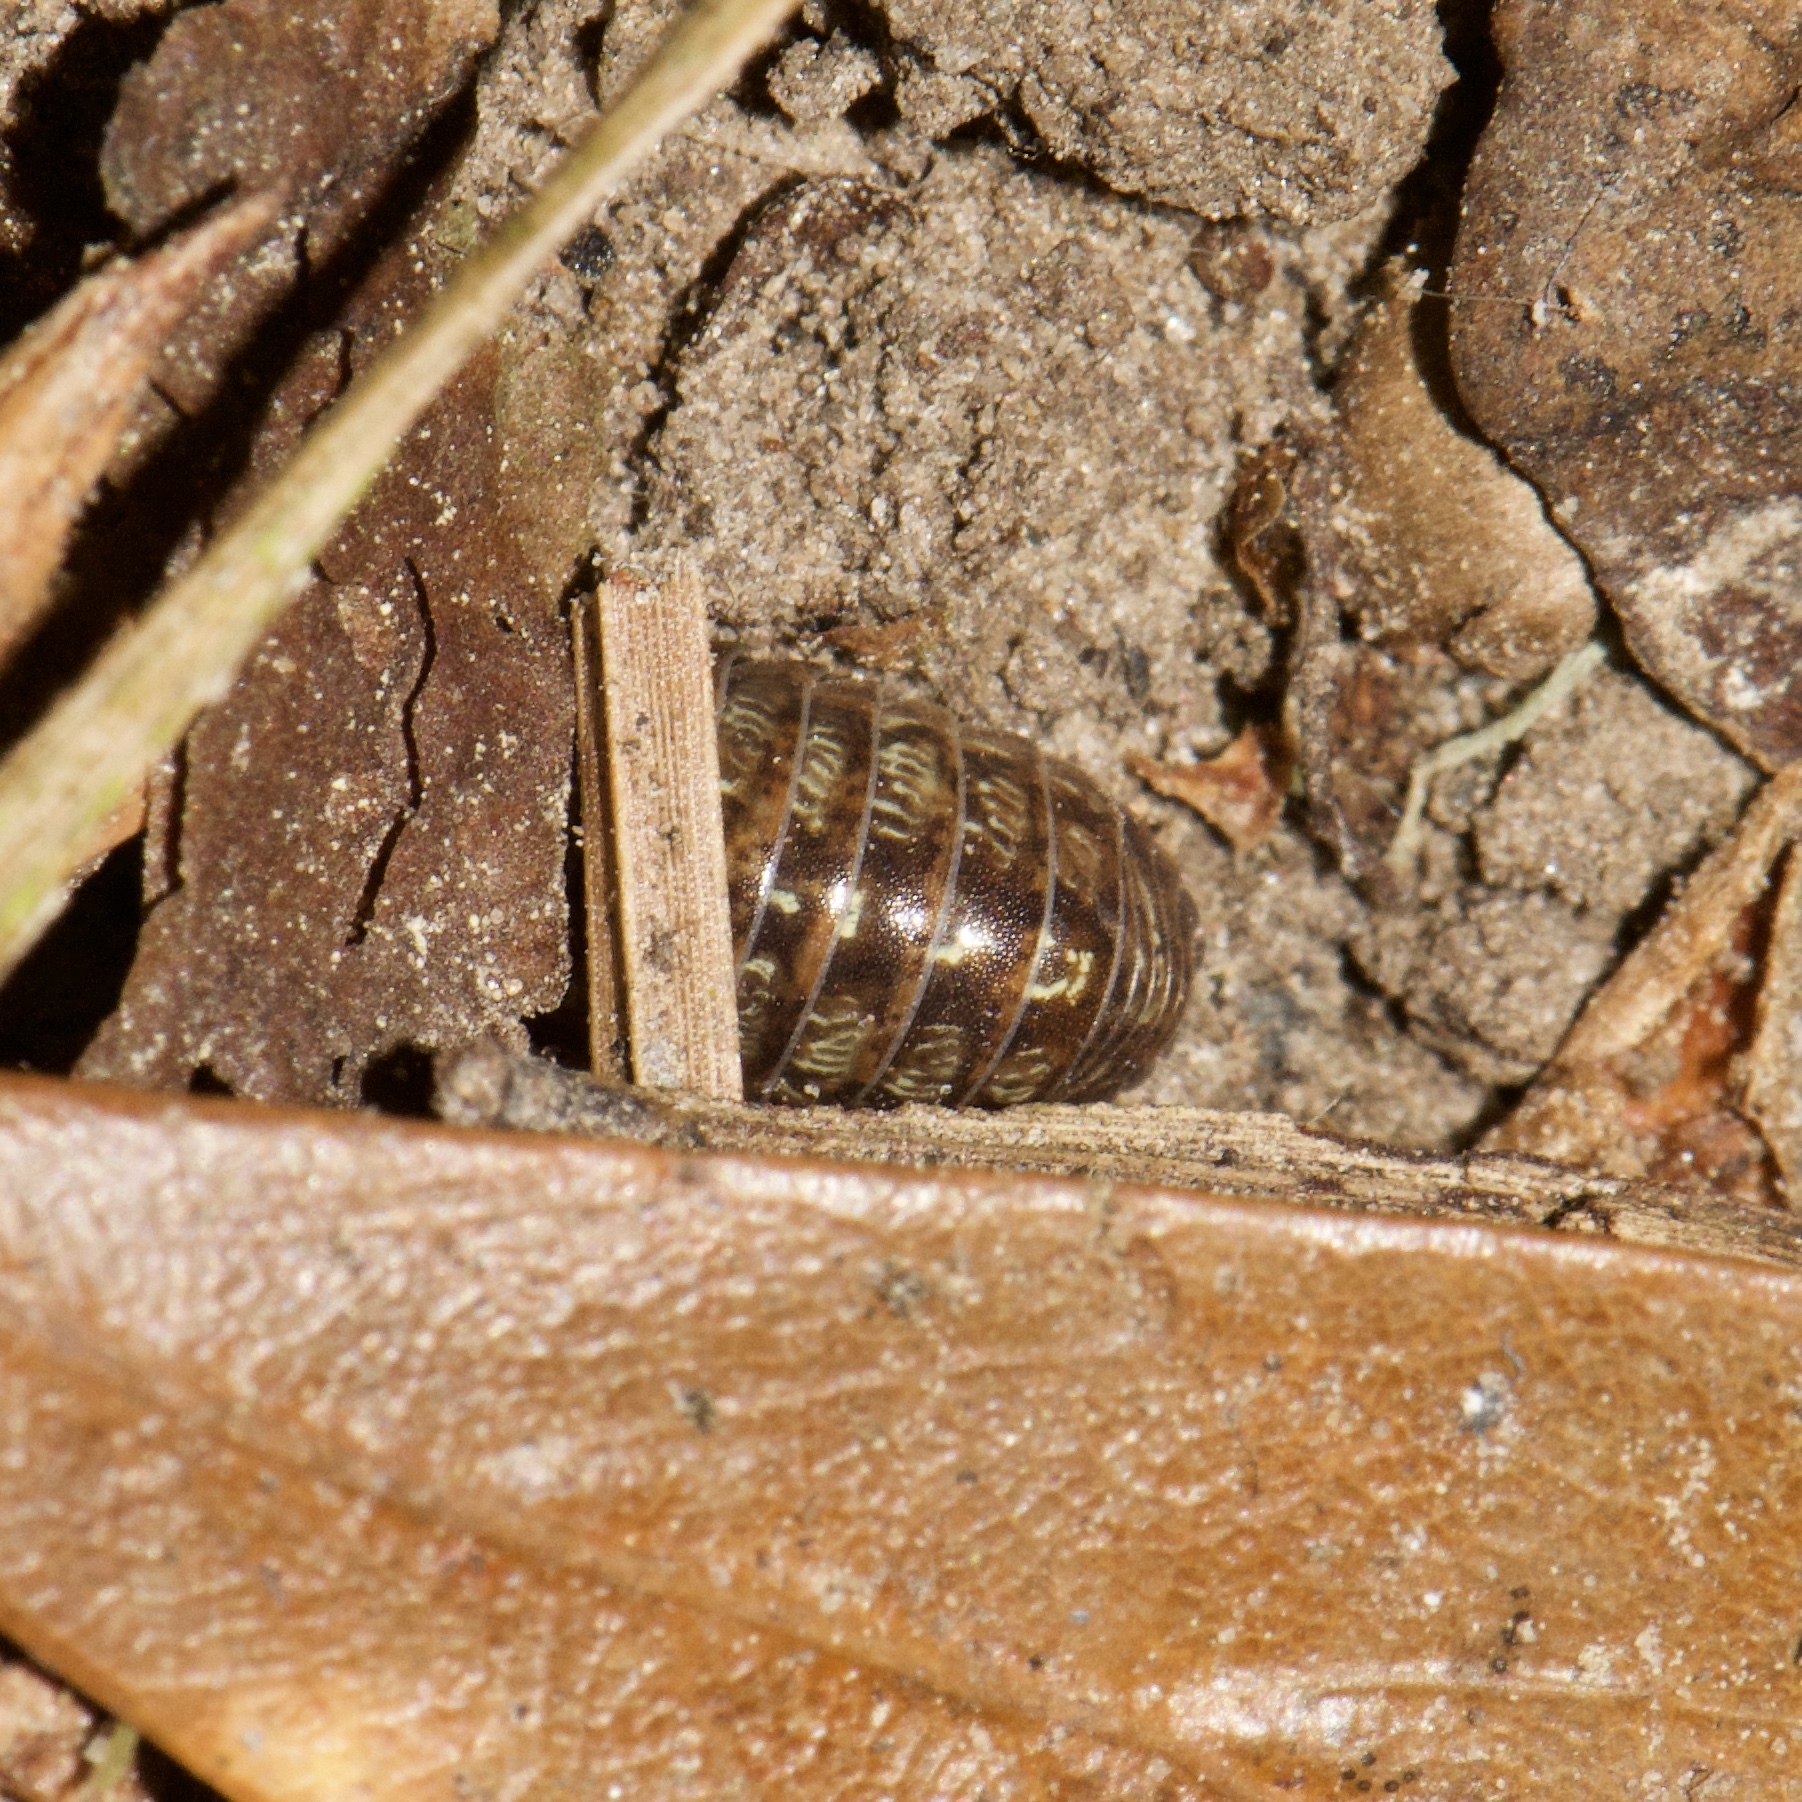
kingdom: Animalia
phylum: Arthropoda
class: Malacostraca
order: Isopoda
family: Armadillidiidae
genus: Armadillidium
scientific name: Armadillidium vulgare
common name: Common pill woodlouse
